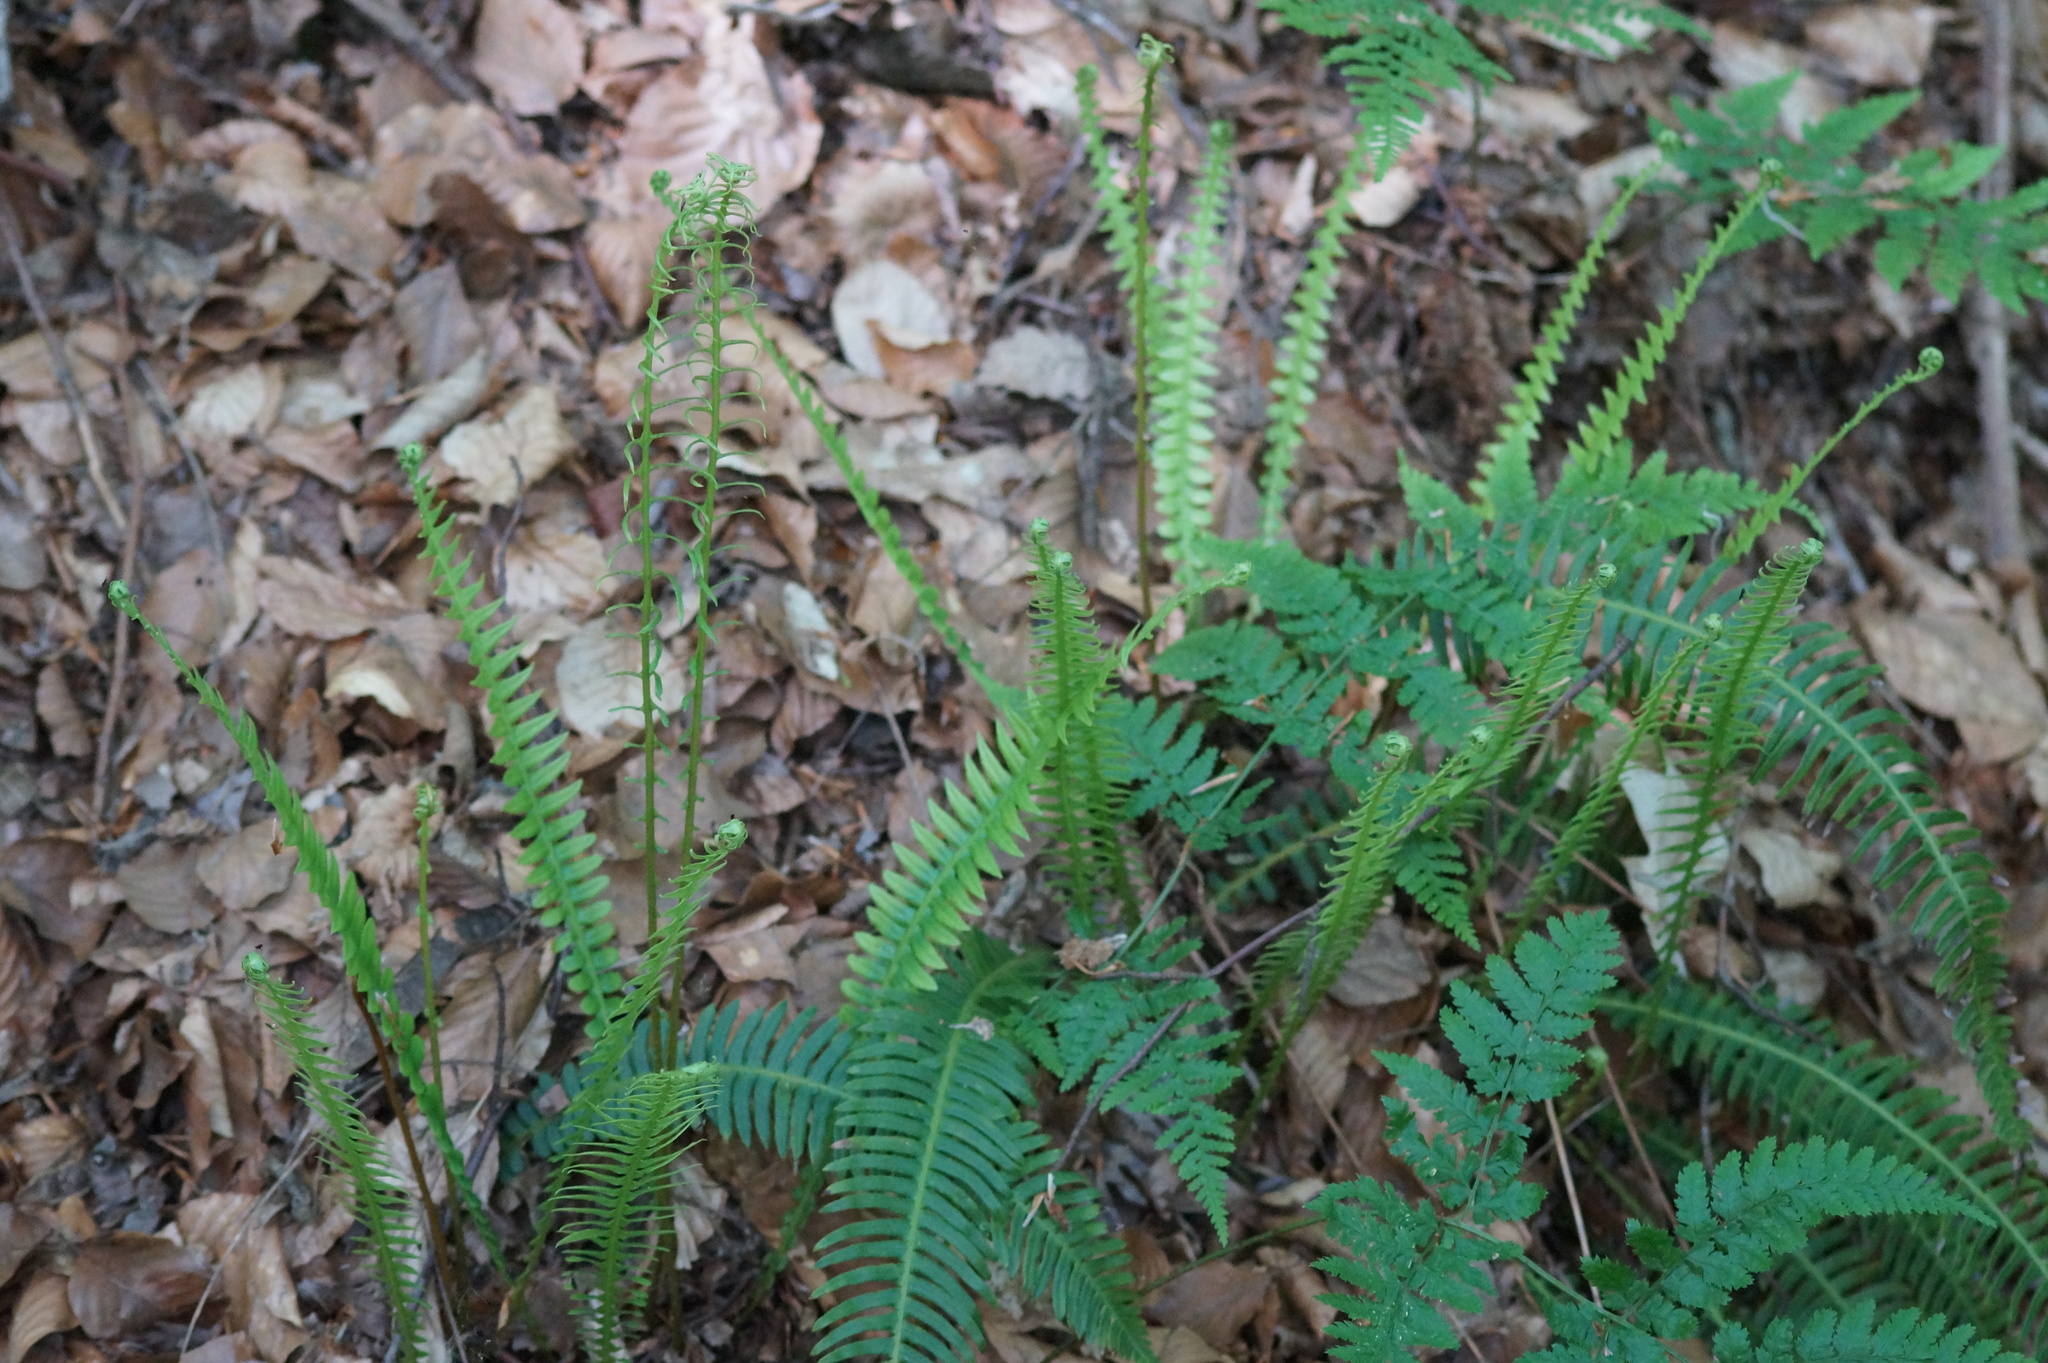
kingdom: Plantae
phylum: Tracheophyta
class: Polypodiopsida
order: Polypodiales
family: Blechnaceae
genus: Struthiopteris
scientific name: Struthiopteris spicant
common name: Deer fern
